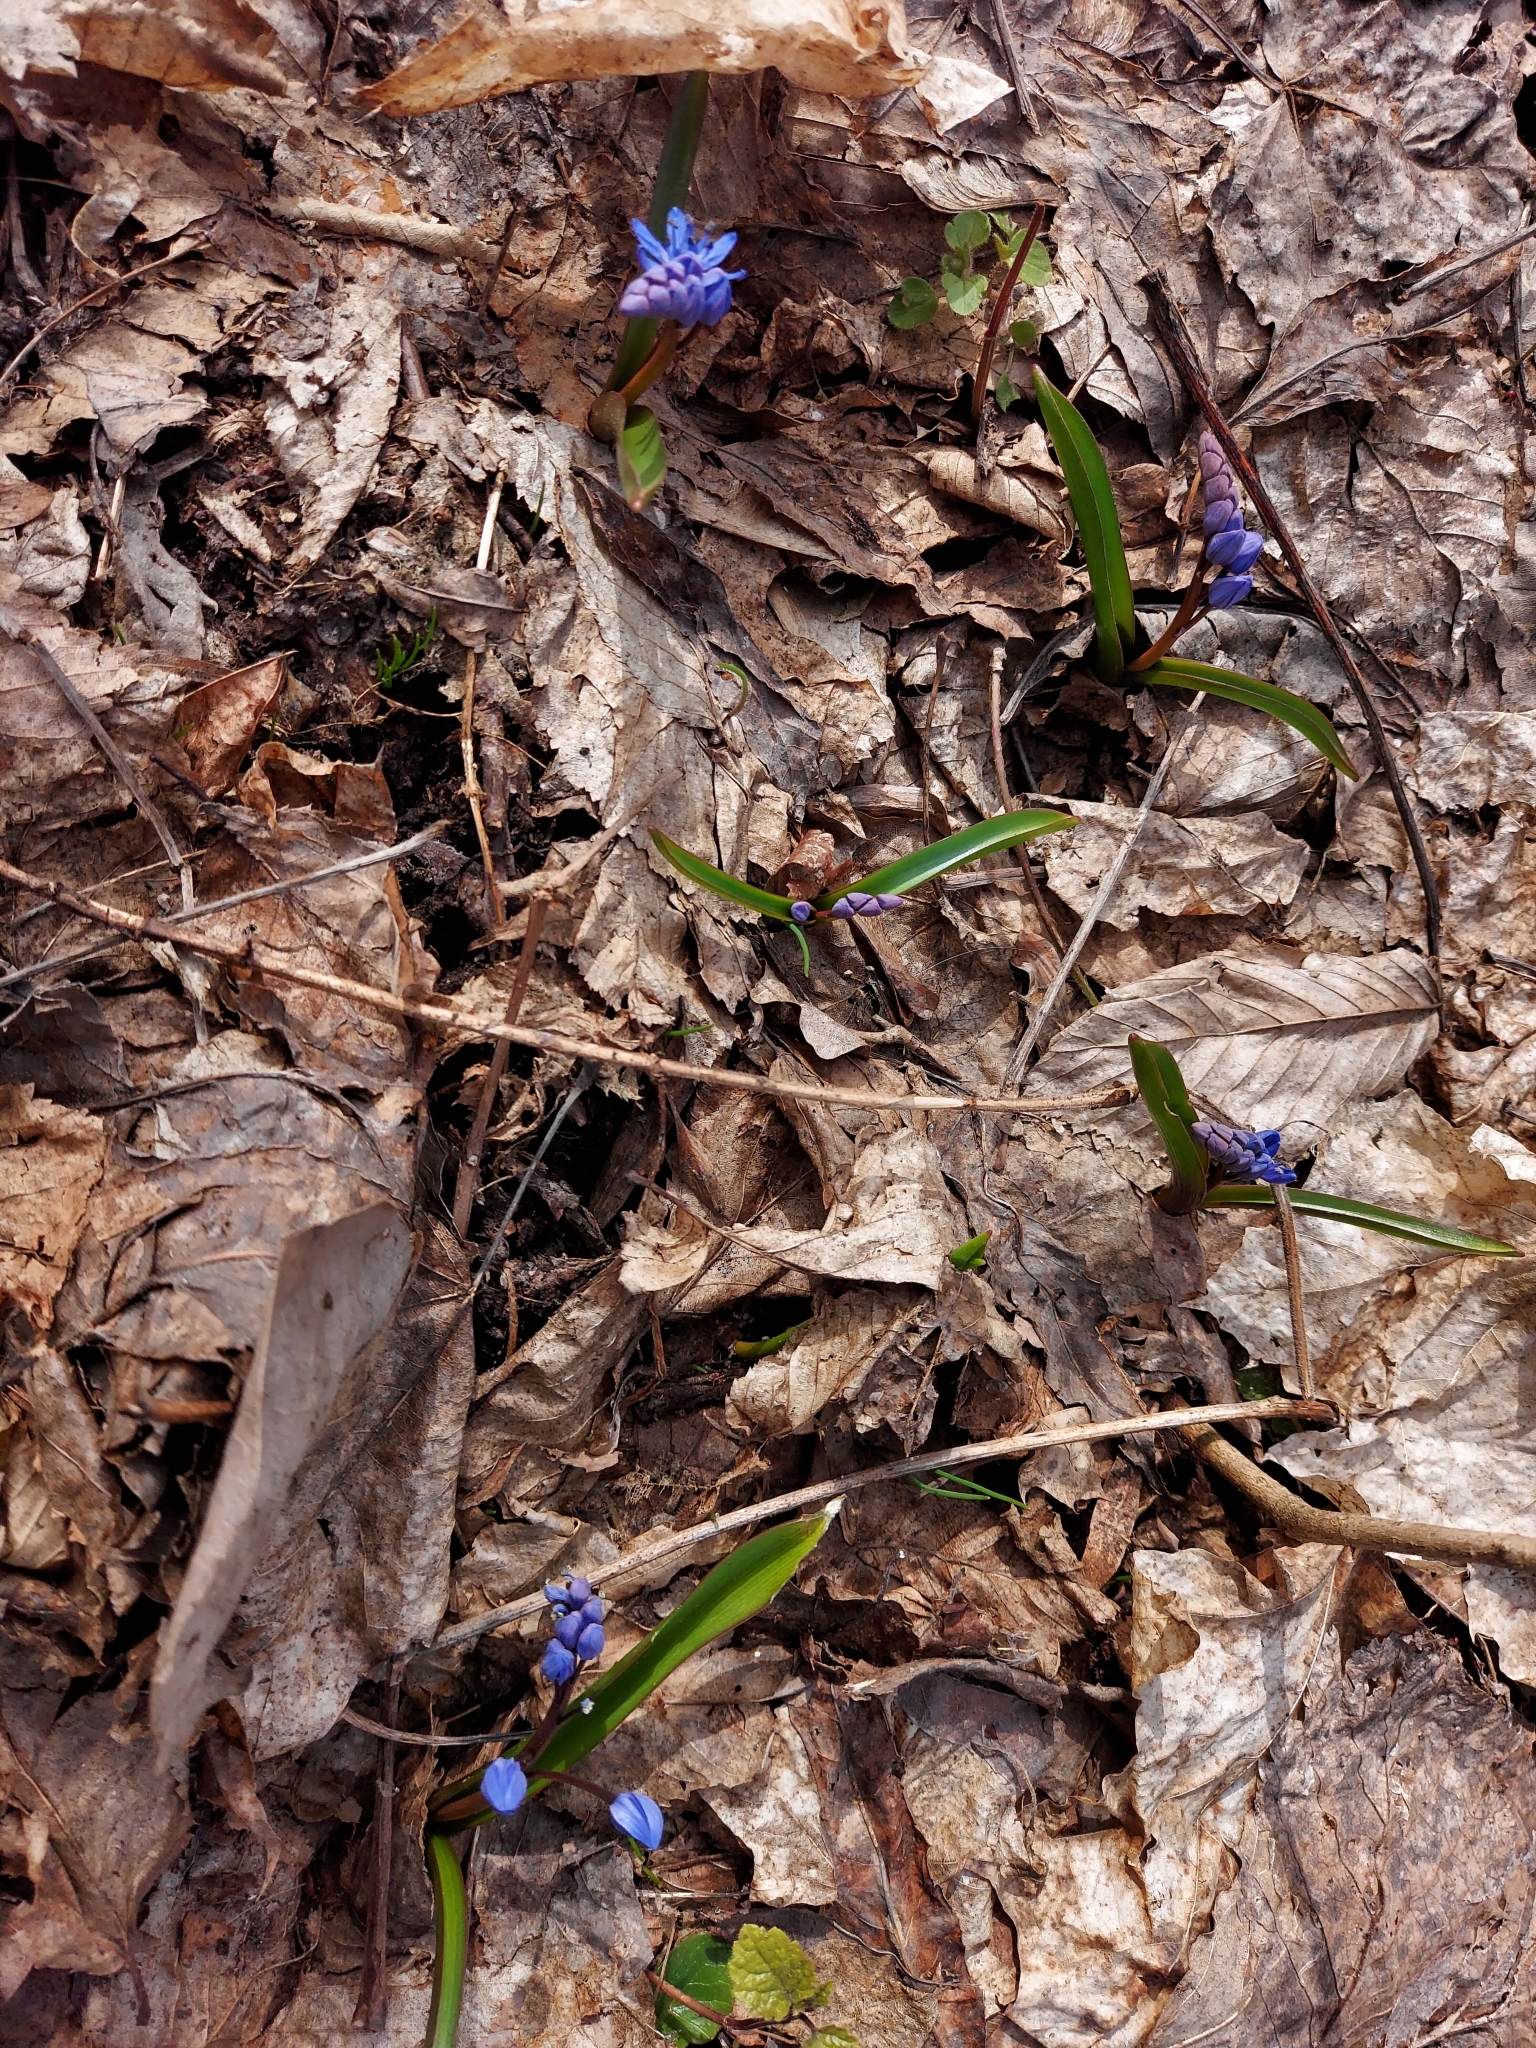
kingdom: Plantae
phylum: Tracheophyta
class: Liliopsida
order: Asparagales
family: Asparagaceae
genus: Scilla
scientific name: Scilla bifolia
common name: Alpine squill
